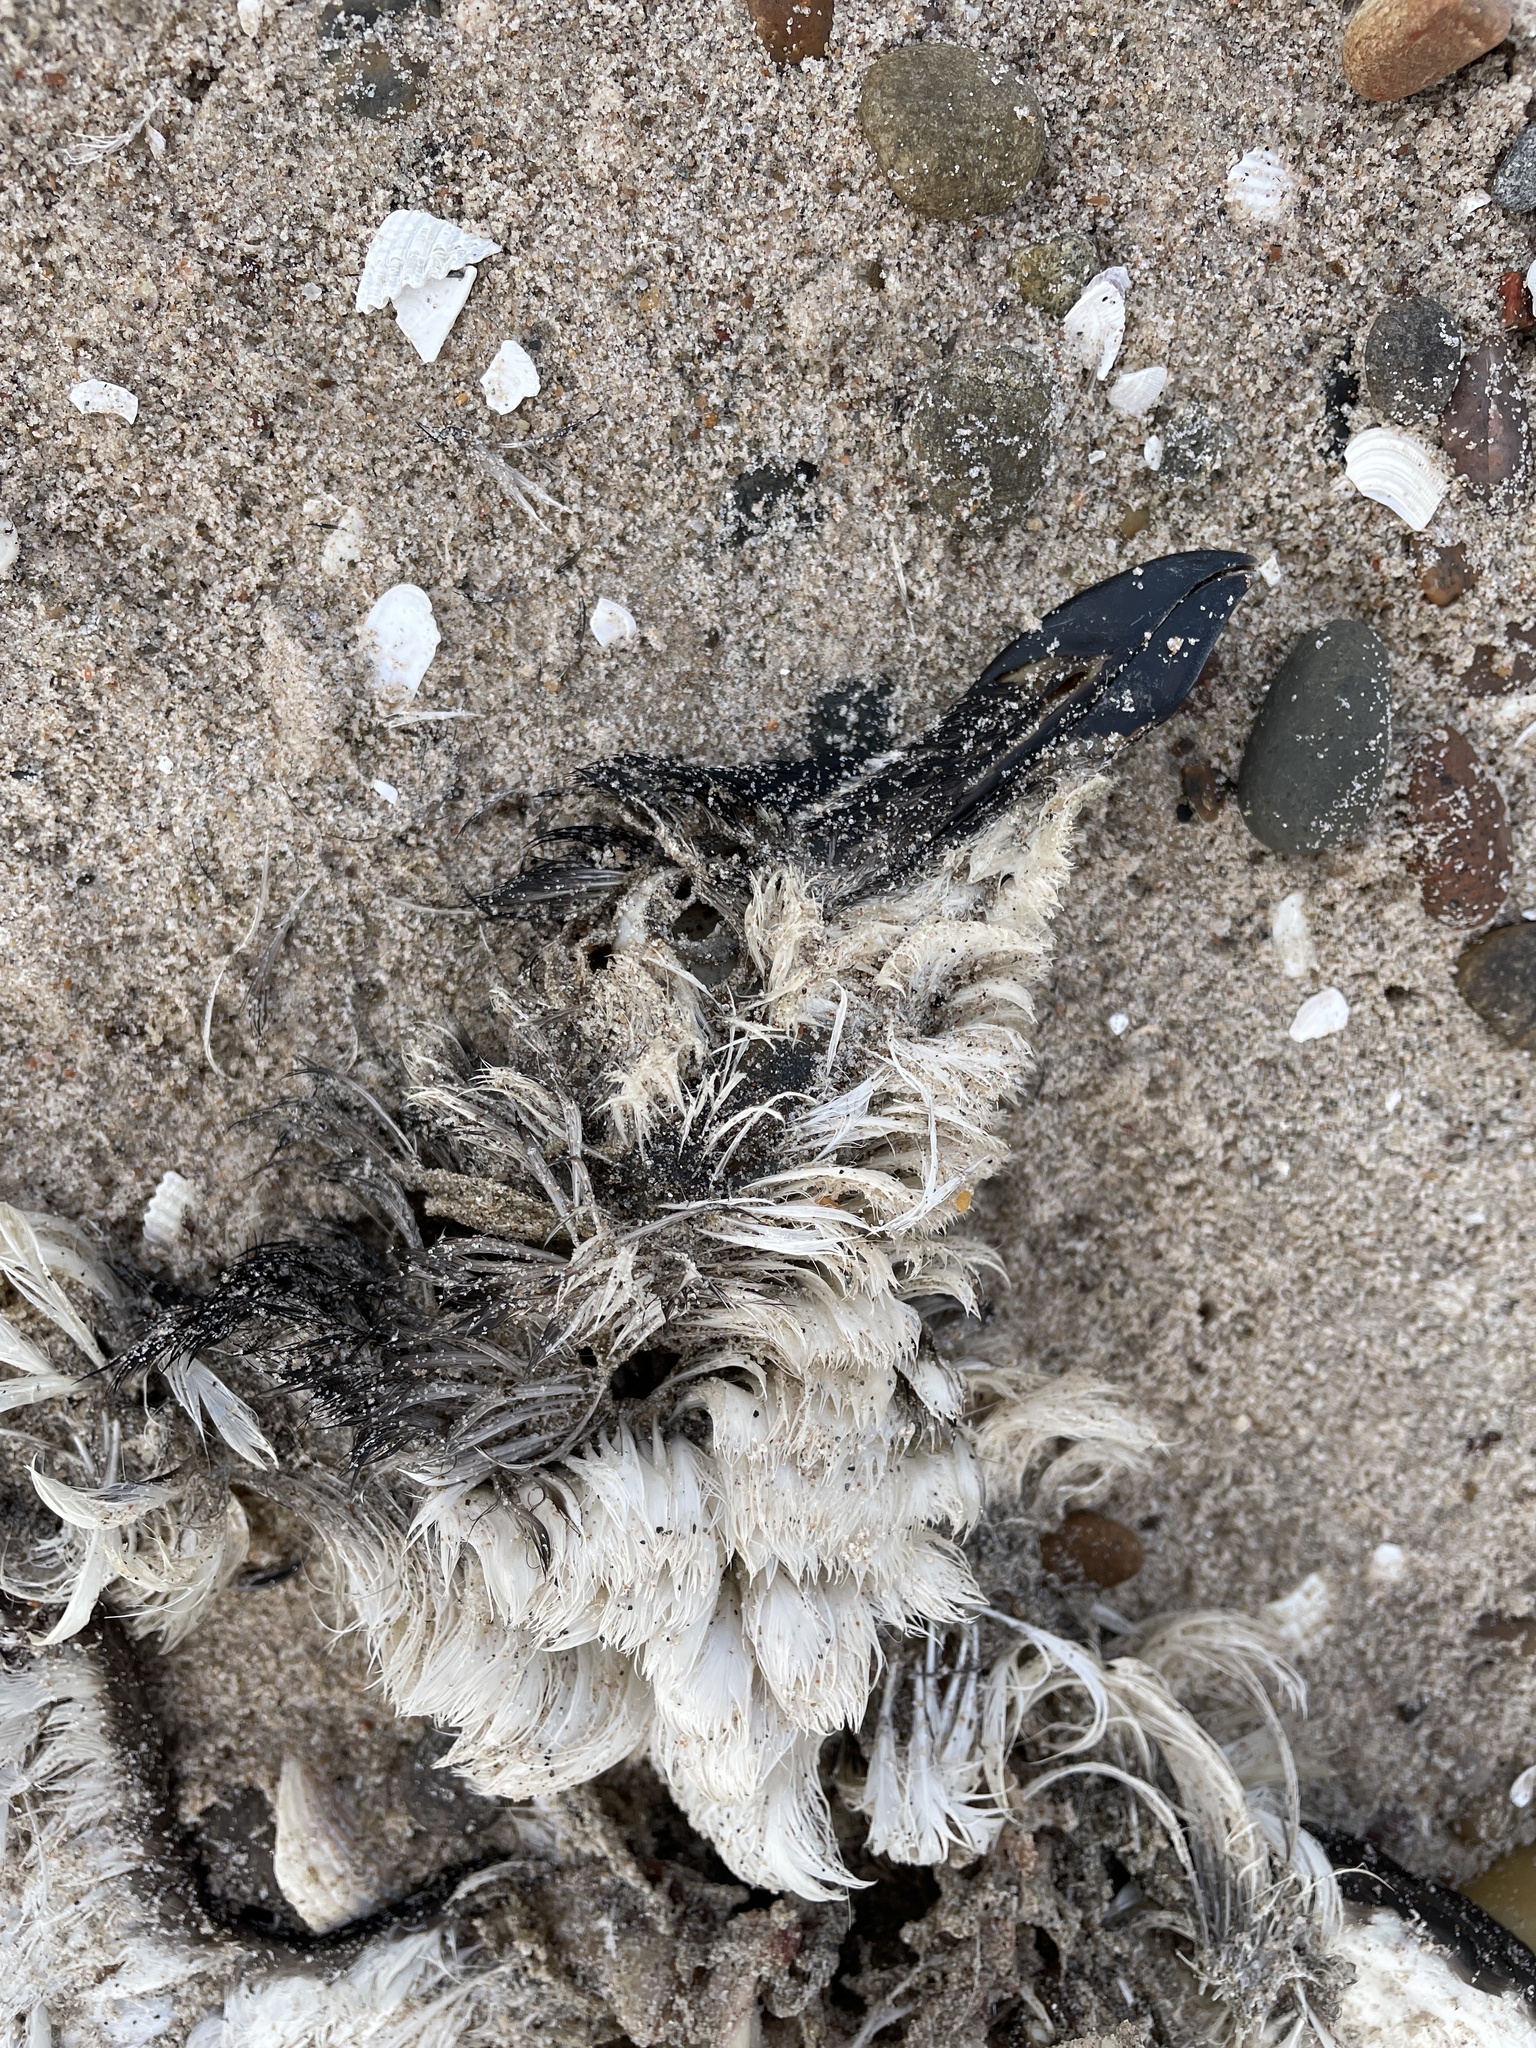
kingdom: Animalia
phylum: Chordata
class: Aves
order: Charadriiformes
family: Alcidae
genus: Alca
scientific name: Alca torda
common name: Razorbill
